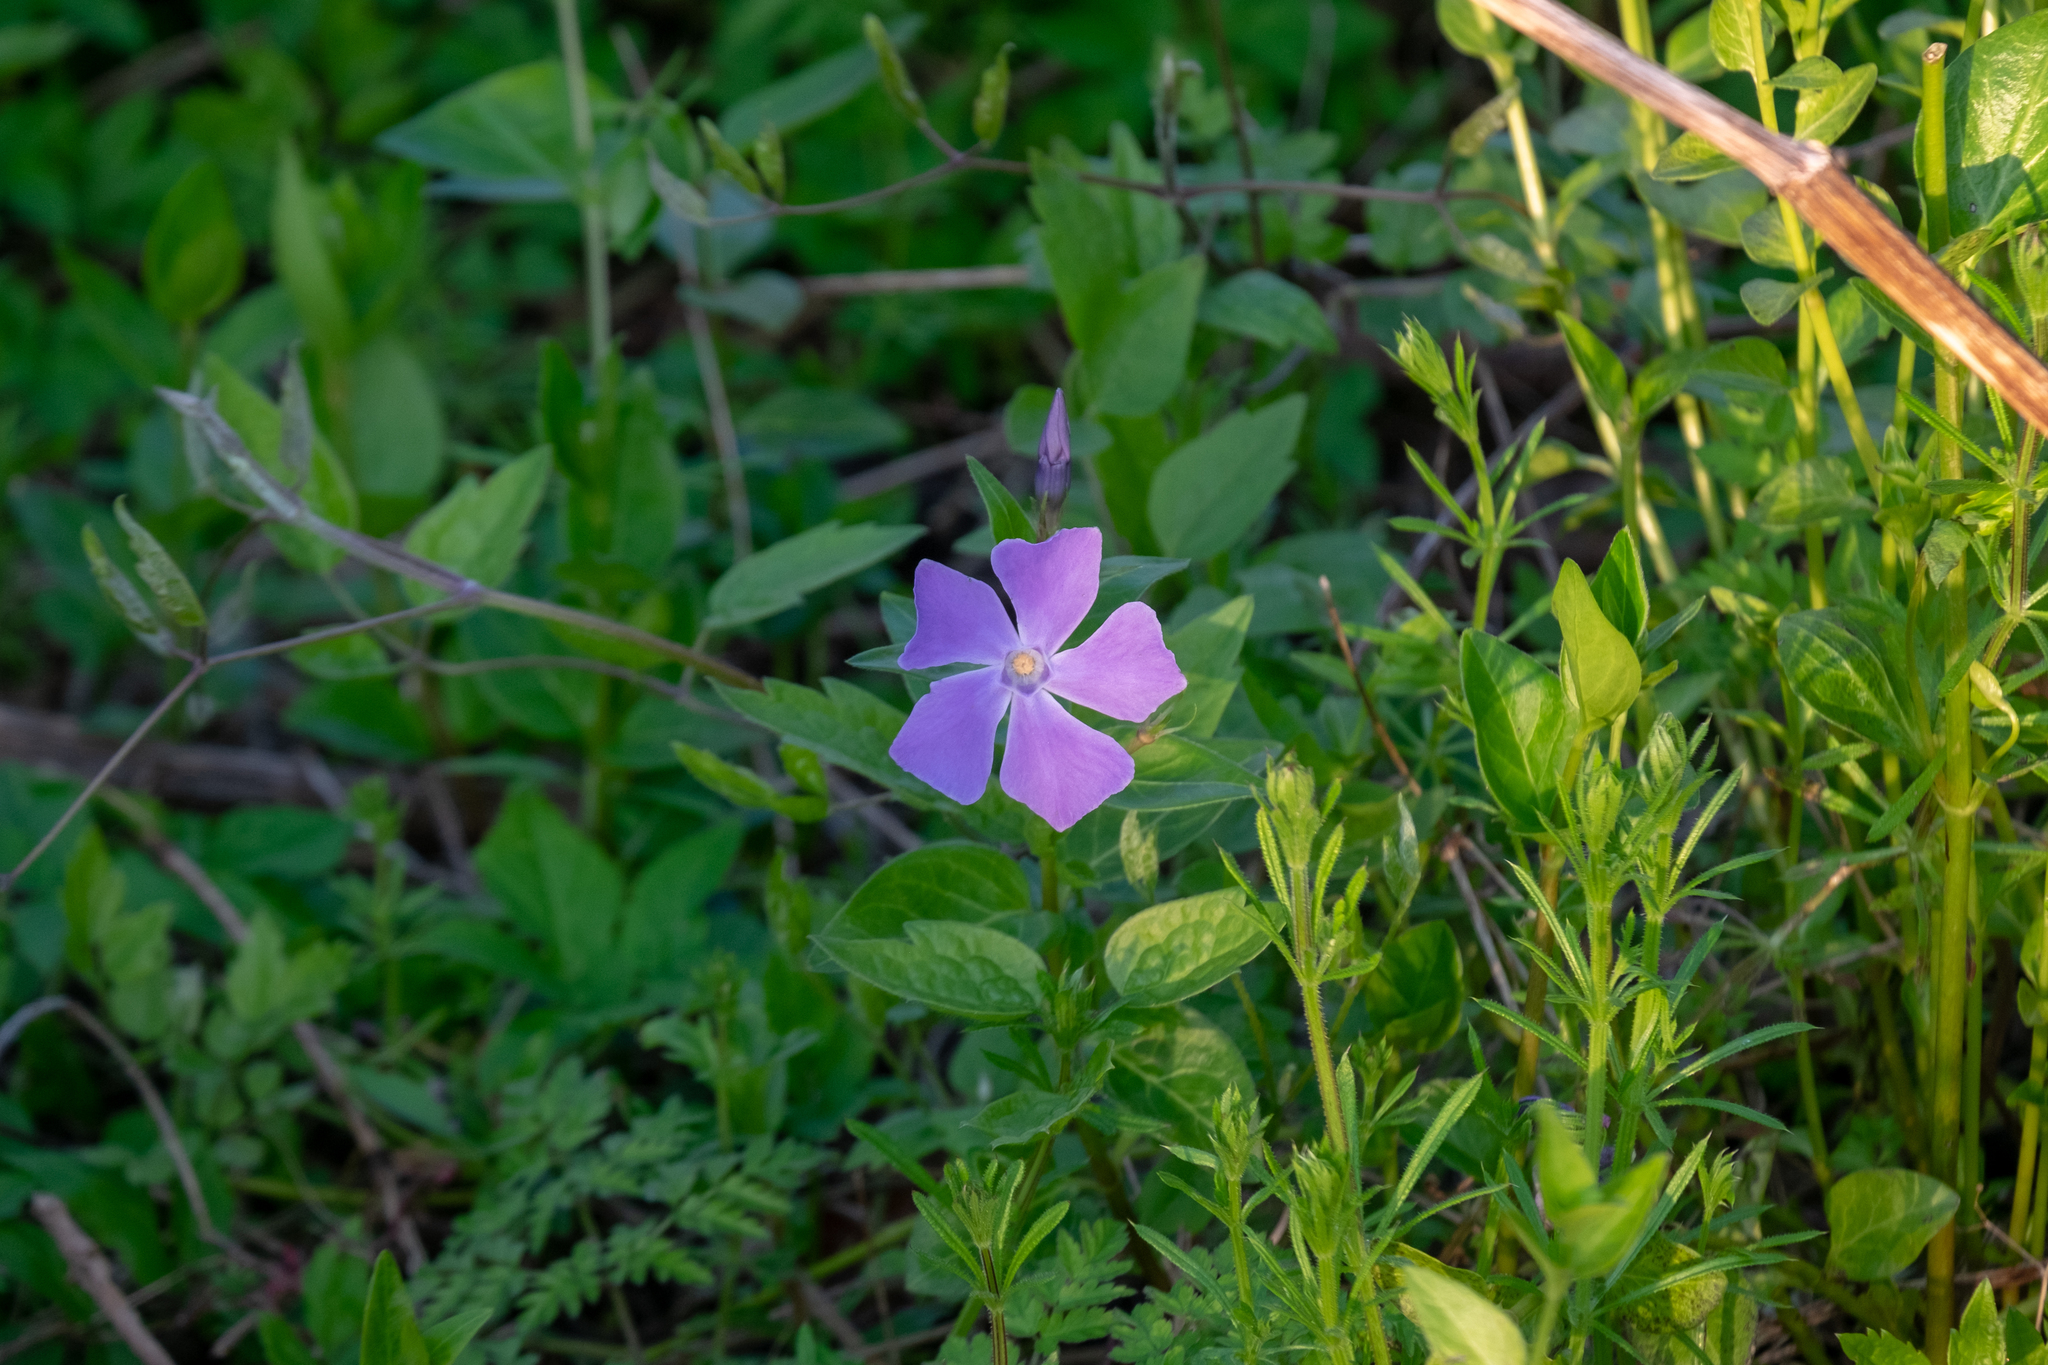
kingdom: Plantae
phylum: Tracheophyta
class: Magnoliopsida
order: Gentianales
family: Apocynaceae
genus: Vinca
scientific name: Vinca major
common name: Greater periwinkle
